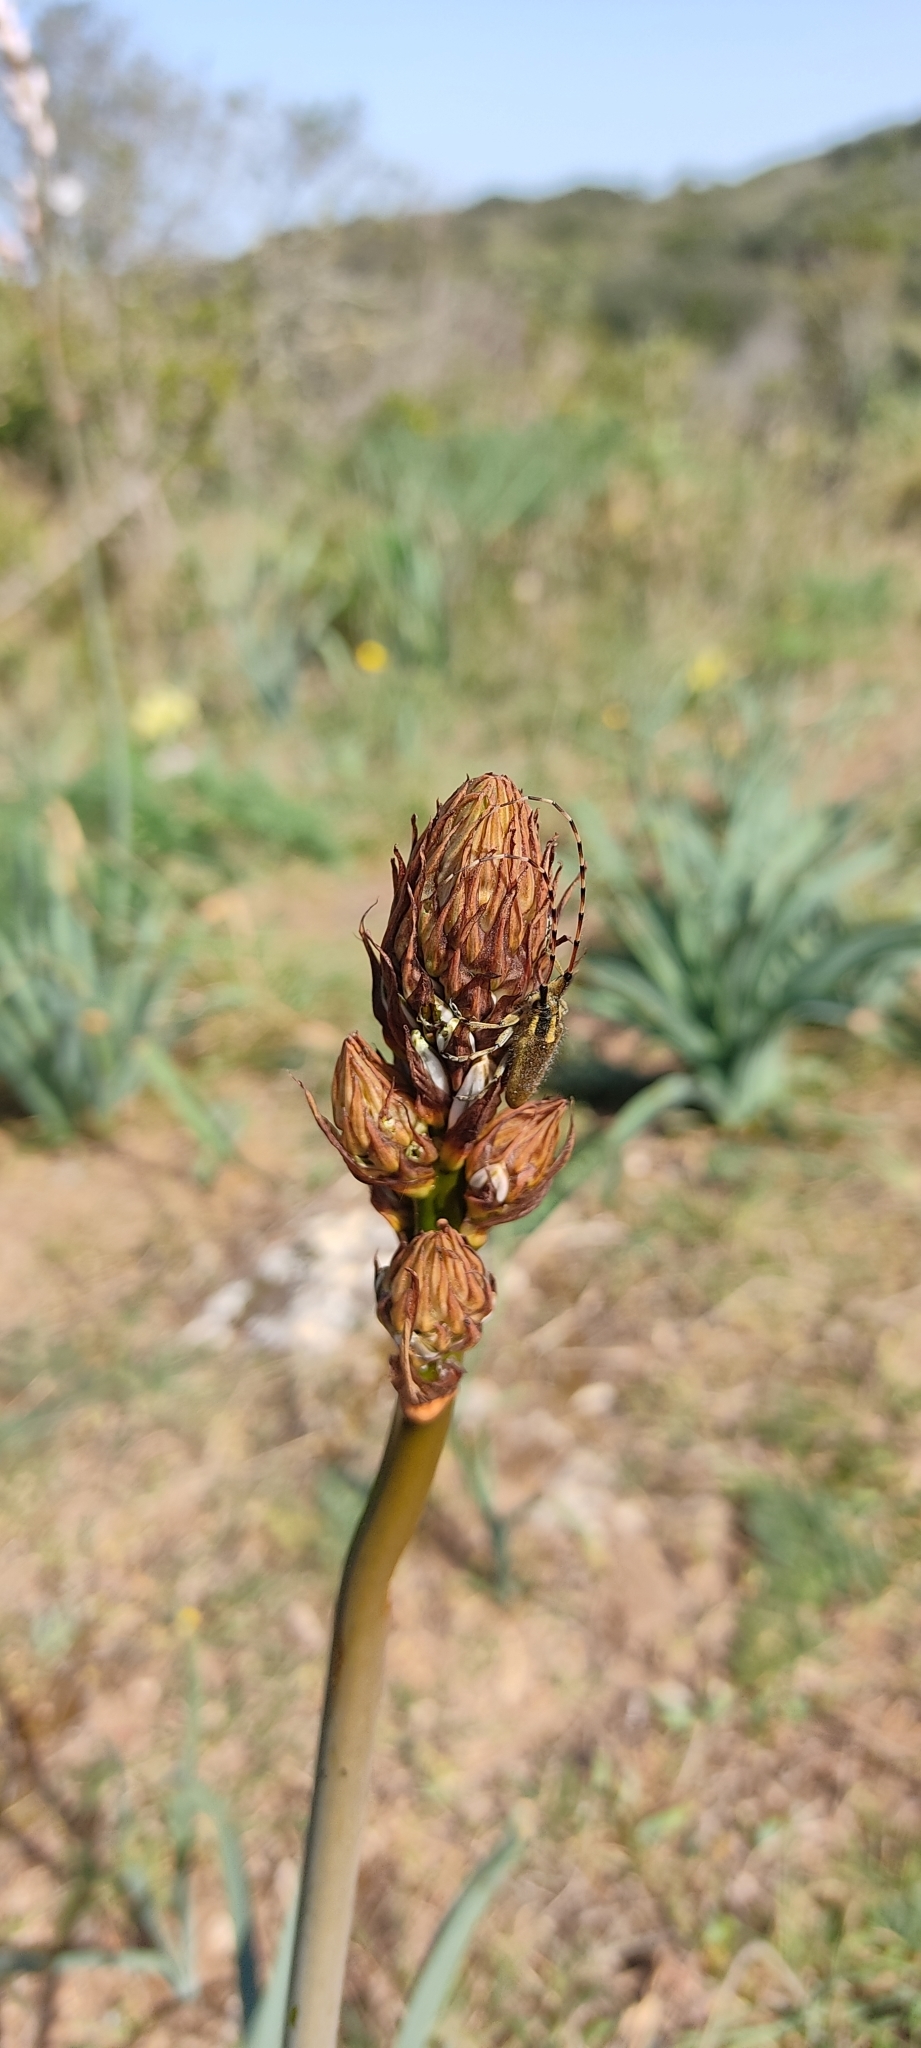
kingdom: Animalia
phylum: Arthropoda
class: Insecta
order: Coleoptera
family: Cerambycidae
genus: Agapanthia
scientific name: Agapanthia asphodeli
